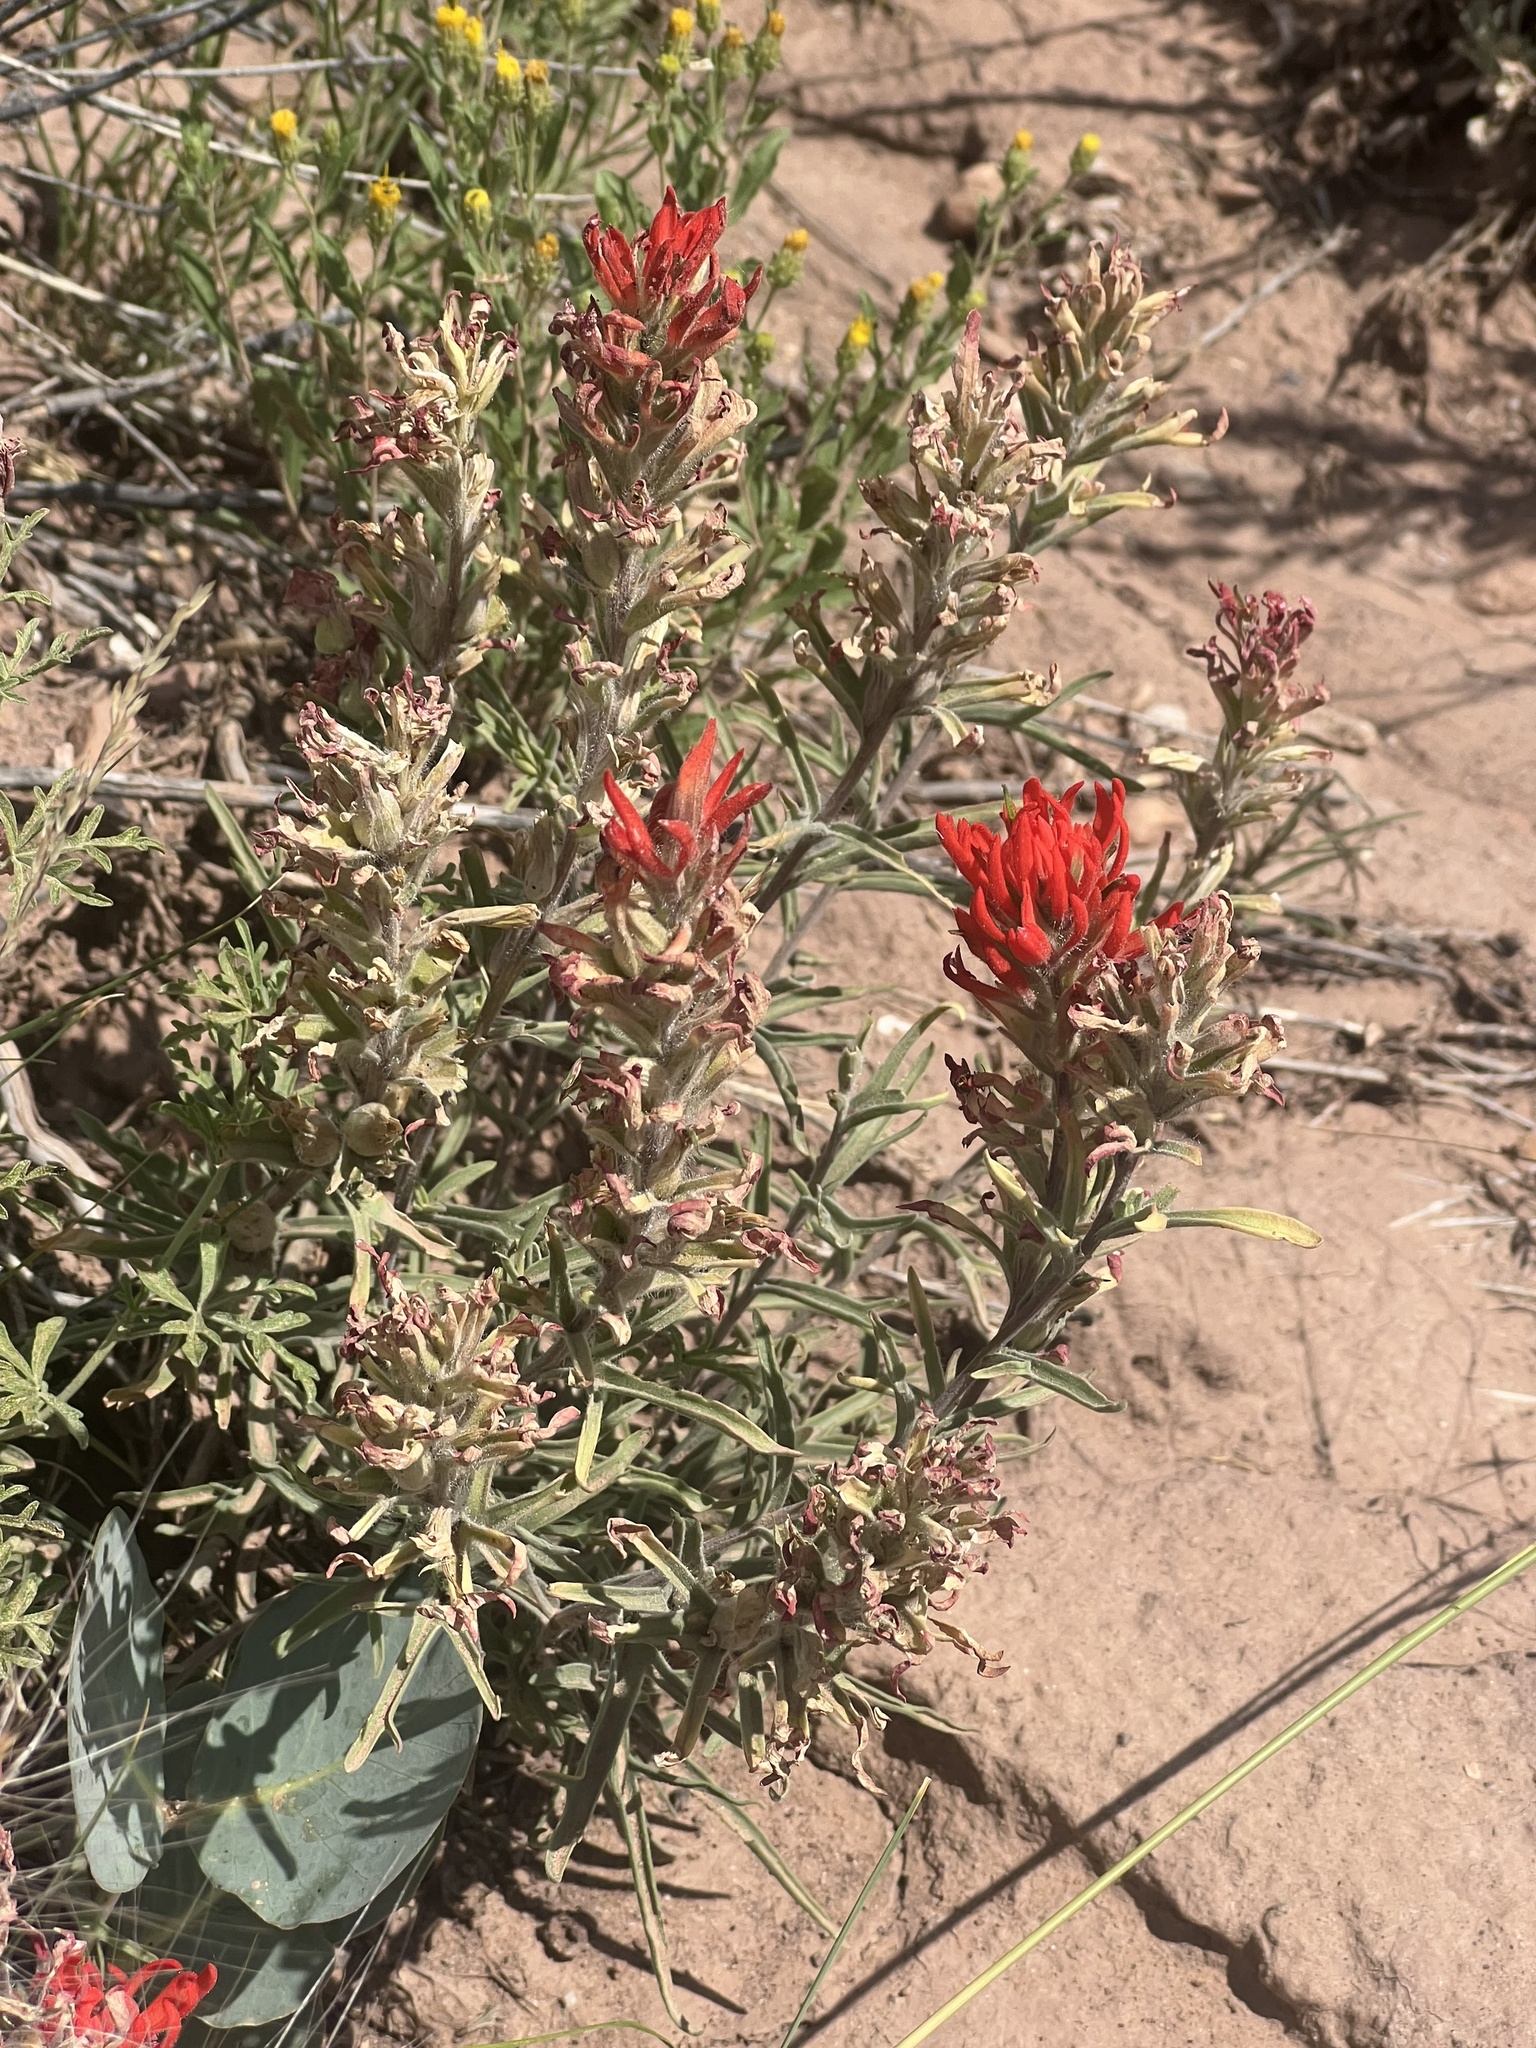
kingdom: Plantae
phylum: Tracheophyta
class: Magnoliopsida
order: Lamiales
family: Orobanchaceae
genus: Castilleja
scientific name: Castilleja chromosa
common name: Desert paintbrush
